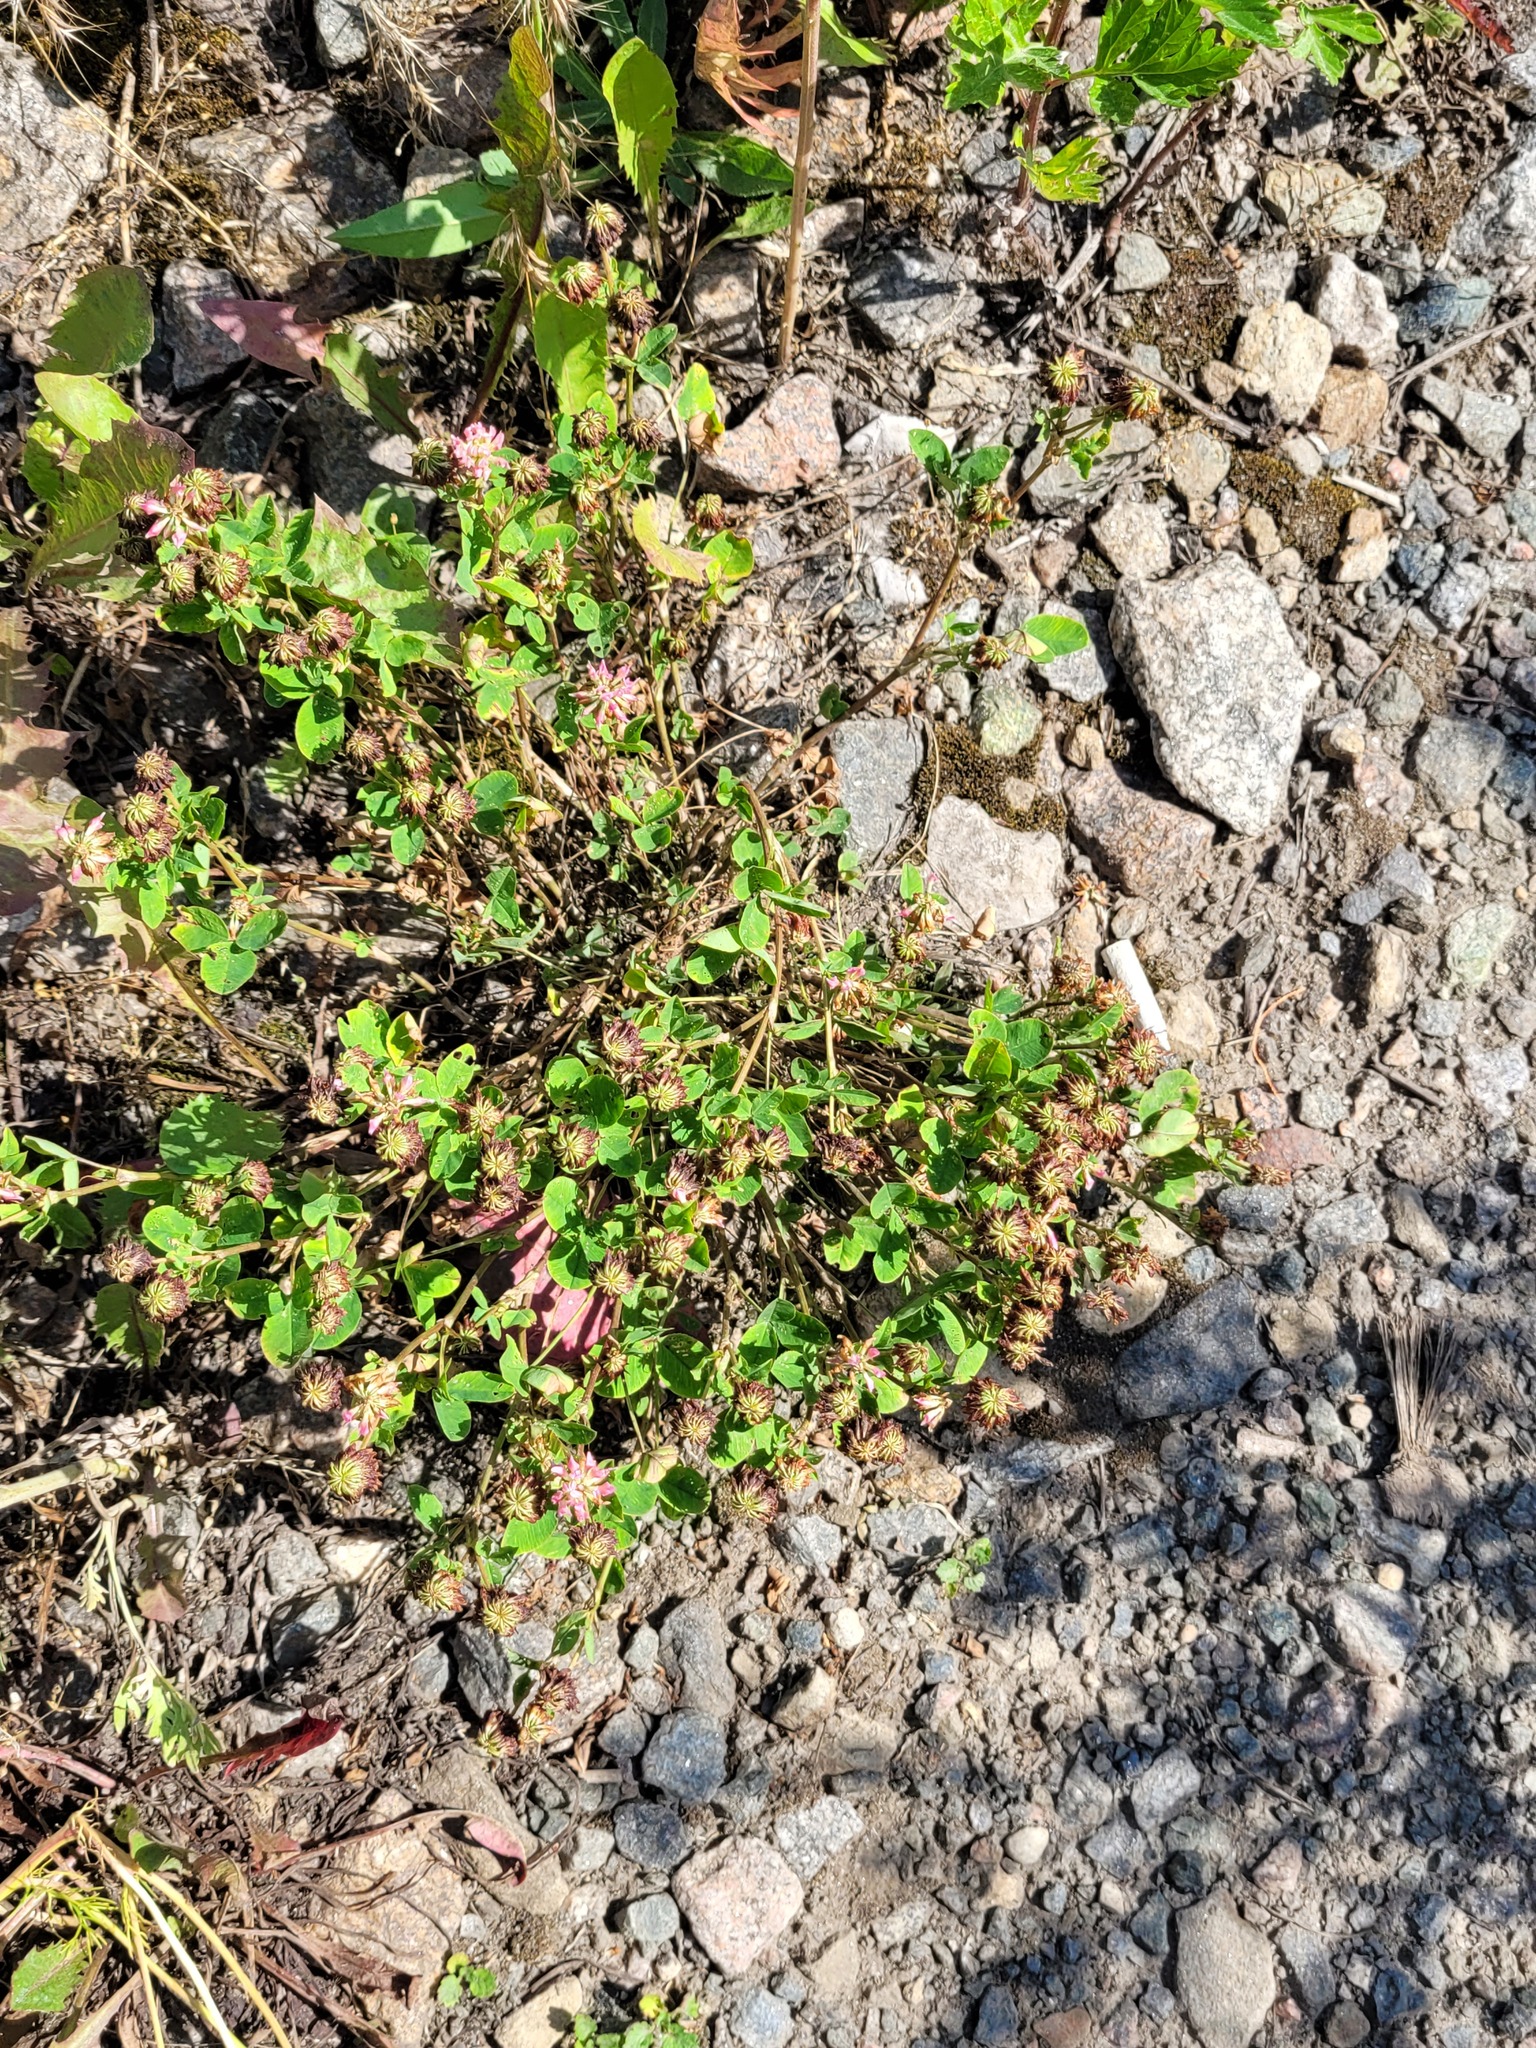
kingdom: Plantae
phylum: Tracheophyta
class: Magnoliopsida
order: Fabales
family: Fabaceae
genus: Trifolium
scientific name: Trifolium hybridum
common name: Alsike clover
